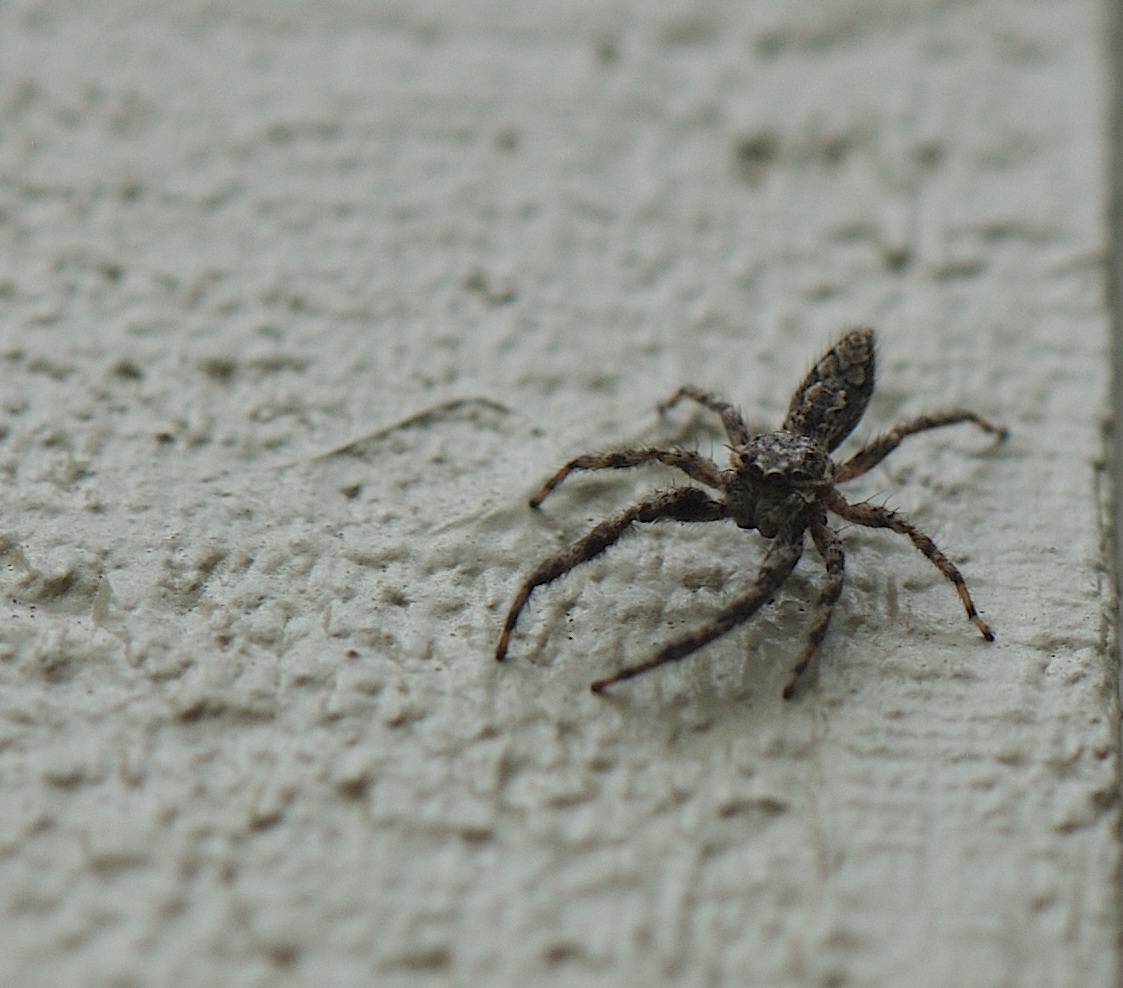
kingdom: Animalia
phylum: Arthropoda
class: Arachnida
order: Araneae
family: Salticidae
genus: Platycryptus
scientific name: Platycryptus undatus
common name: Tan jumping spider
